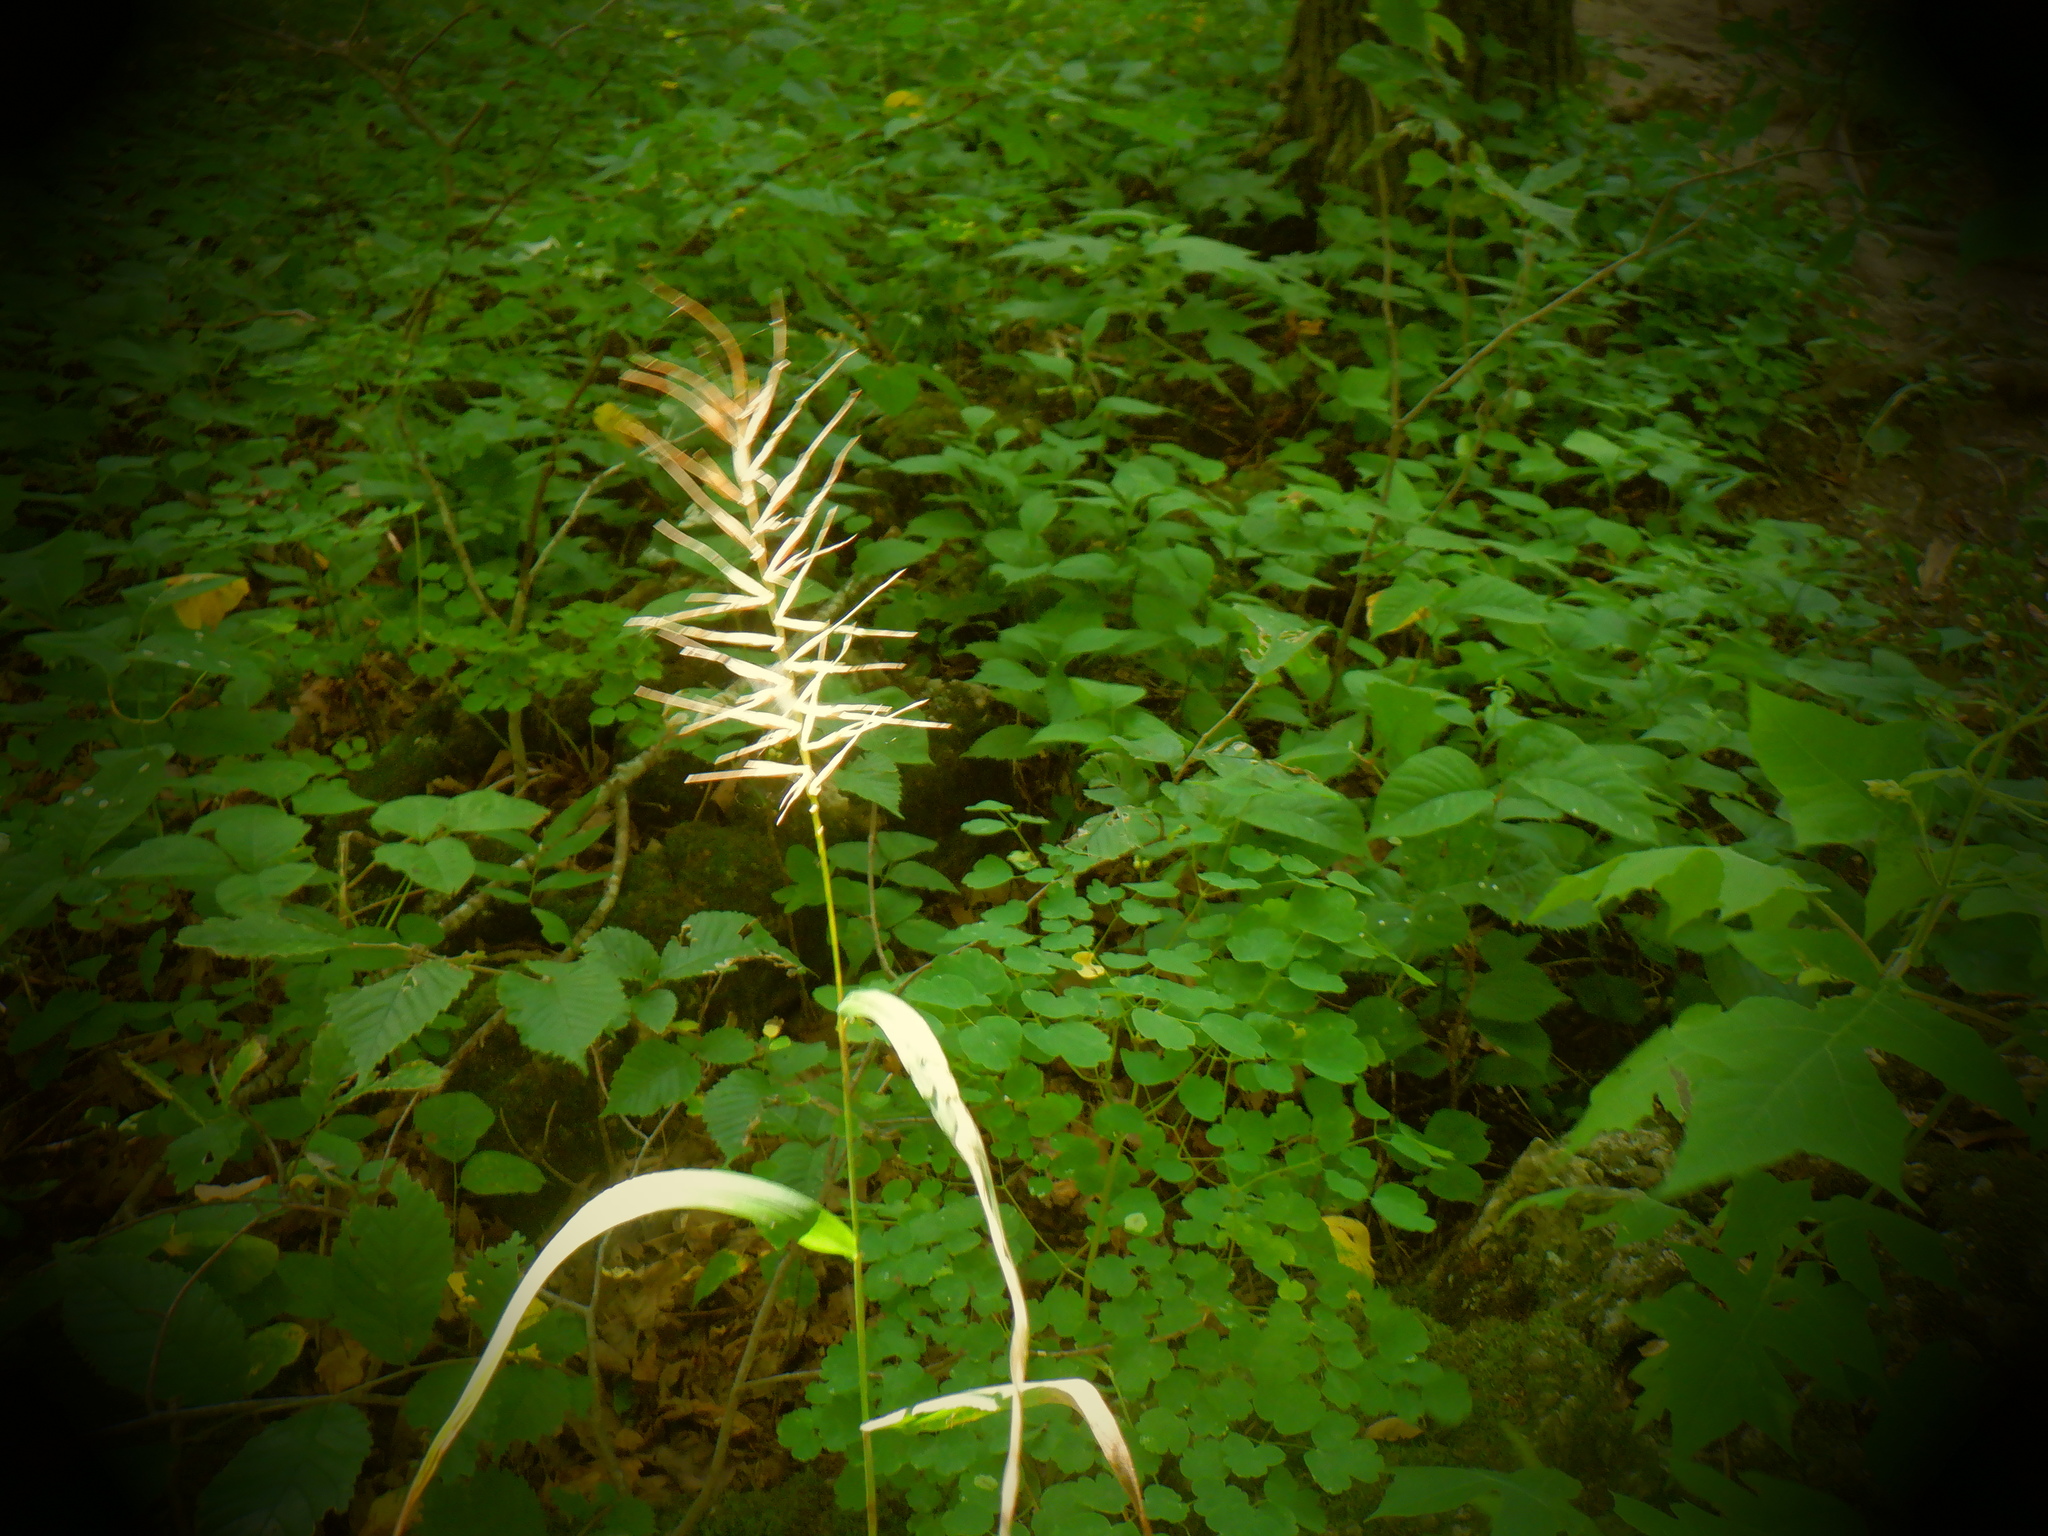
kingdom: Plantae
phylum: Tracheophyta
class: Liliopsida
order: Poales
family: Poaceae
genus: Elymus
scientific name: Elymus hystrix
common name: Bottlebrush grass
